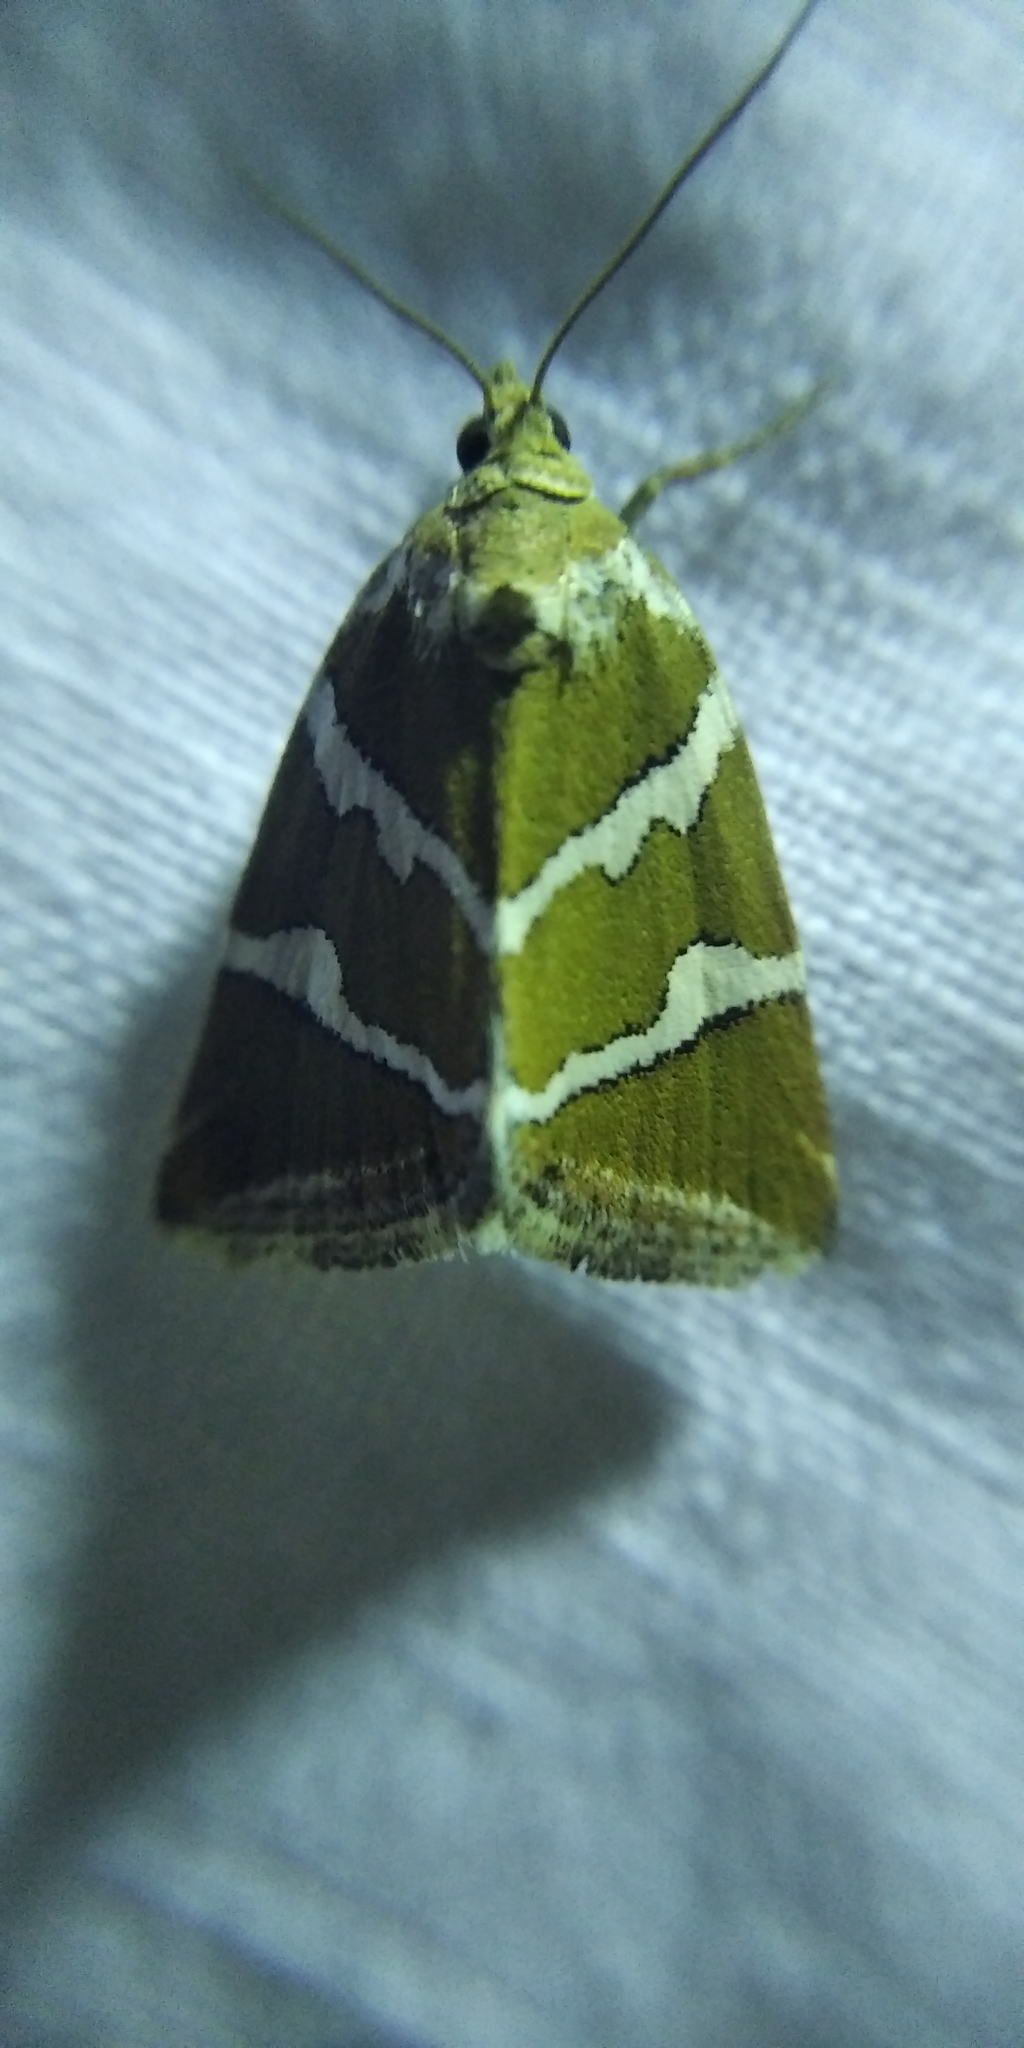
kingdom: Animalia
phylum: Arthropoda
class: Insecta
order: Lepidoptera
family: Noctuidae
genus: Deltote
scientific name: Deltote bankiana
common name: Silver barred
